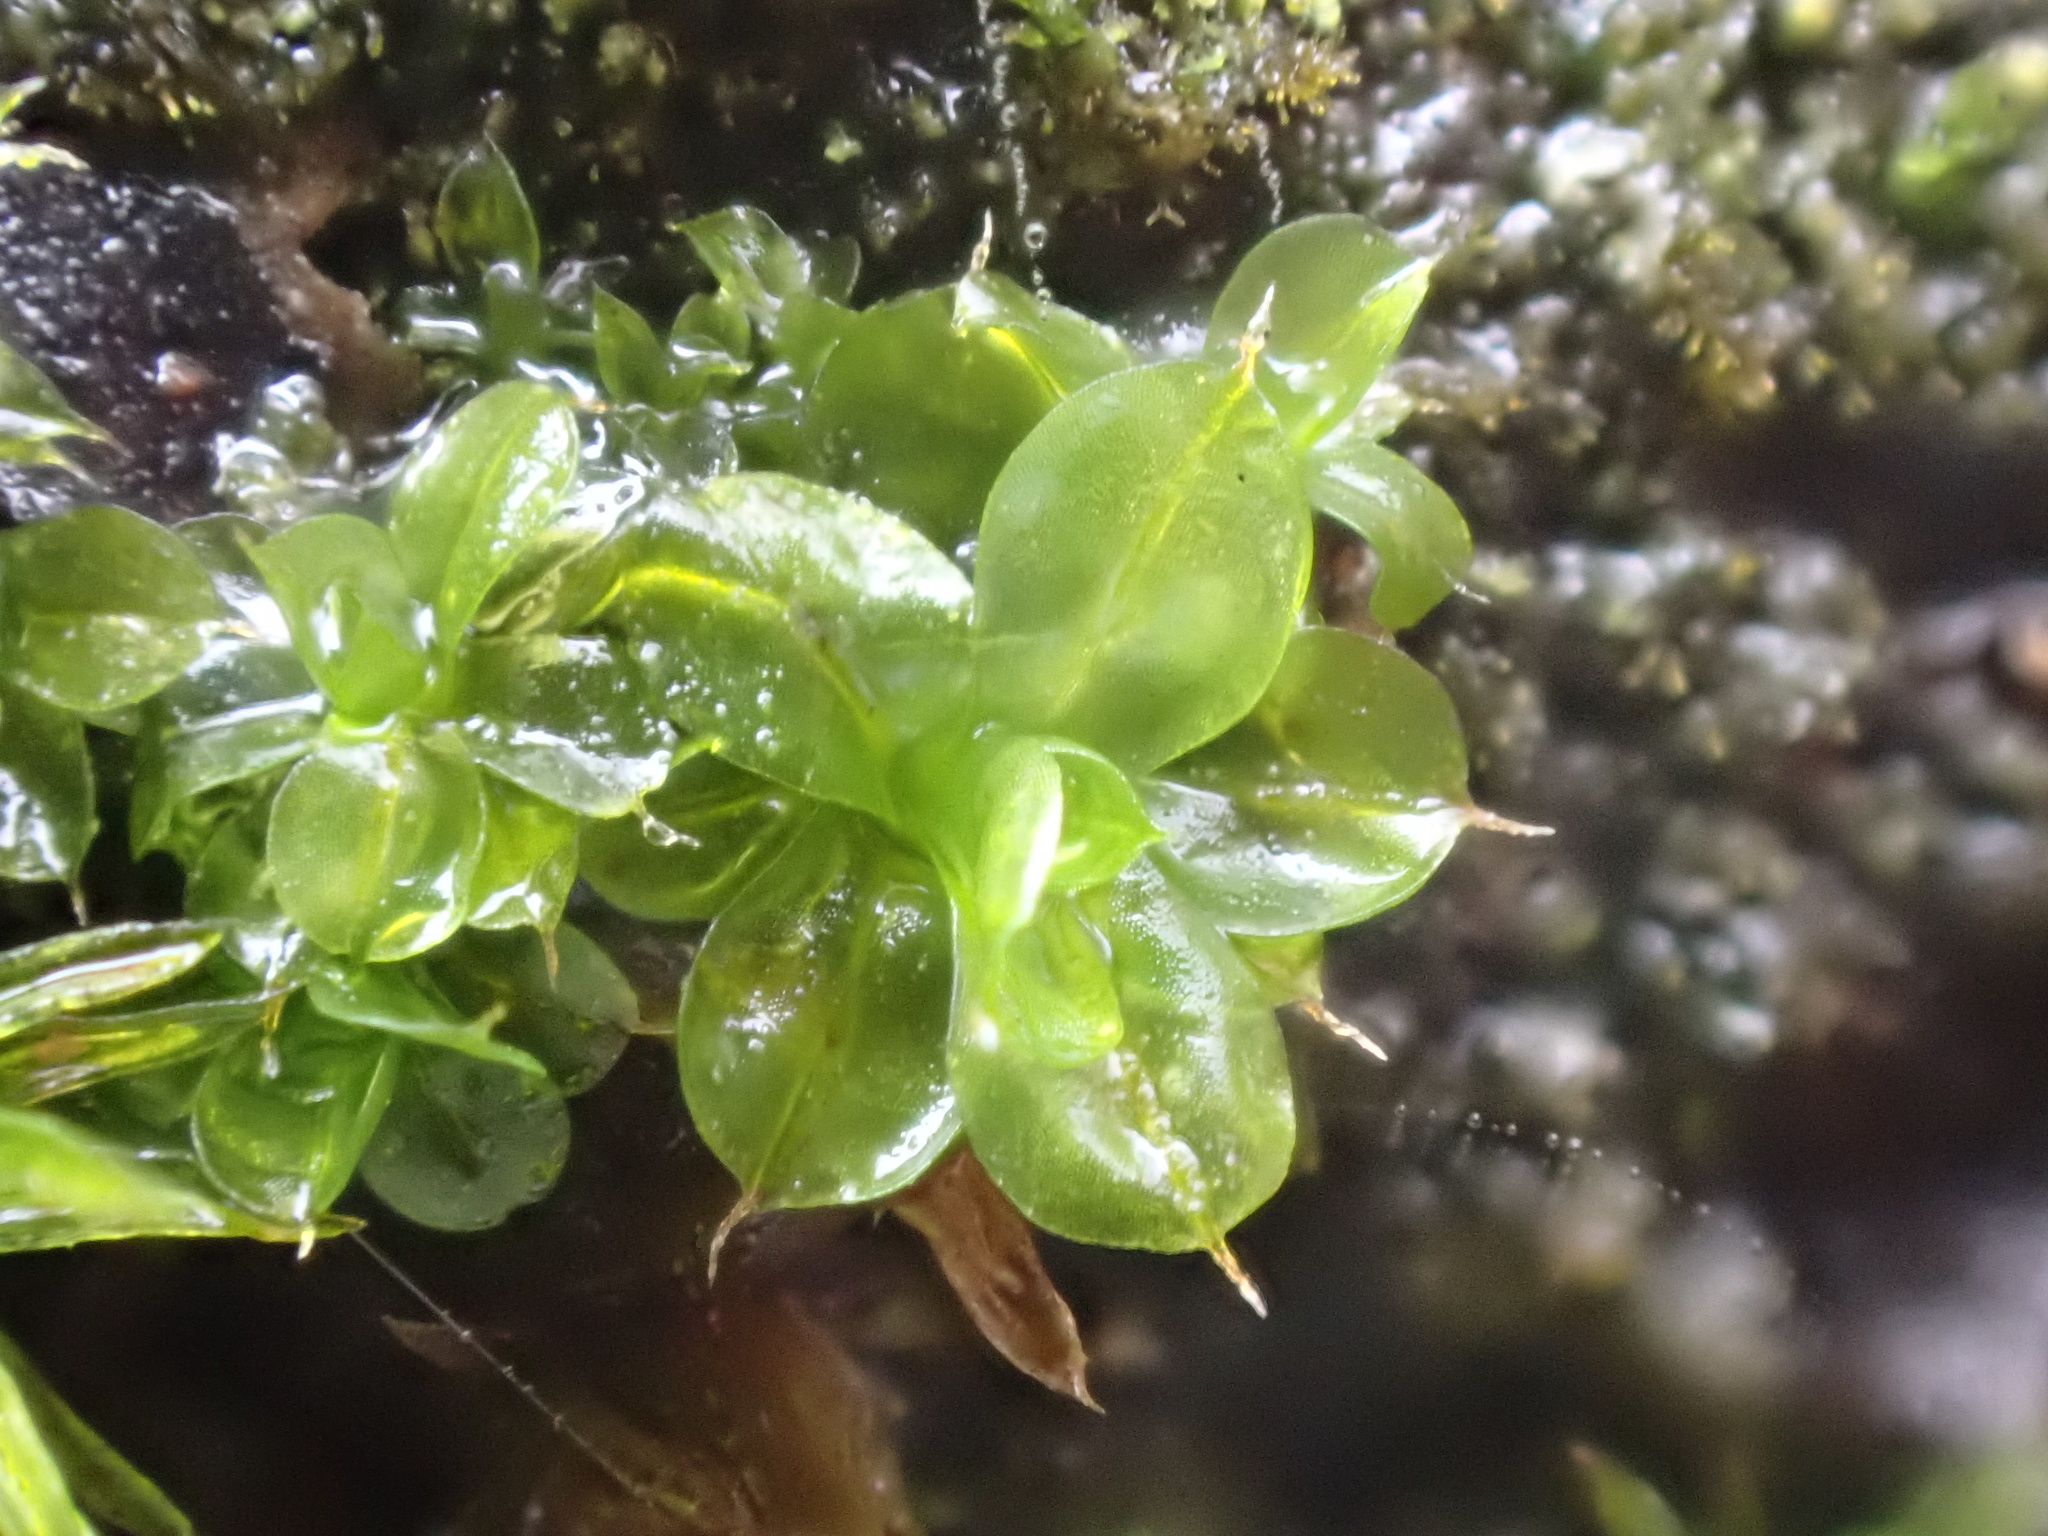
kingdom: Plantae
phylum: Bryophyta
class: Bryopsida
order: Pottiales
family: Pottiaceae
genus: Syntrichia
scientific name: Syntrichia papillosa
